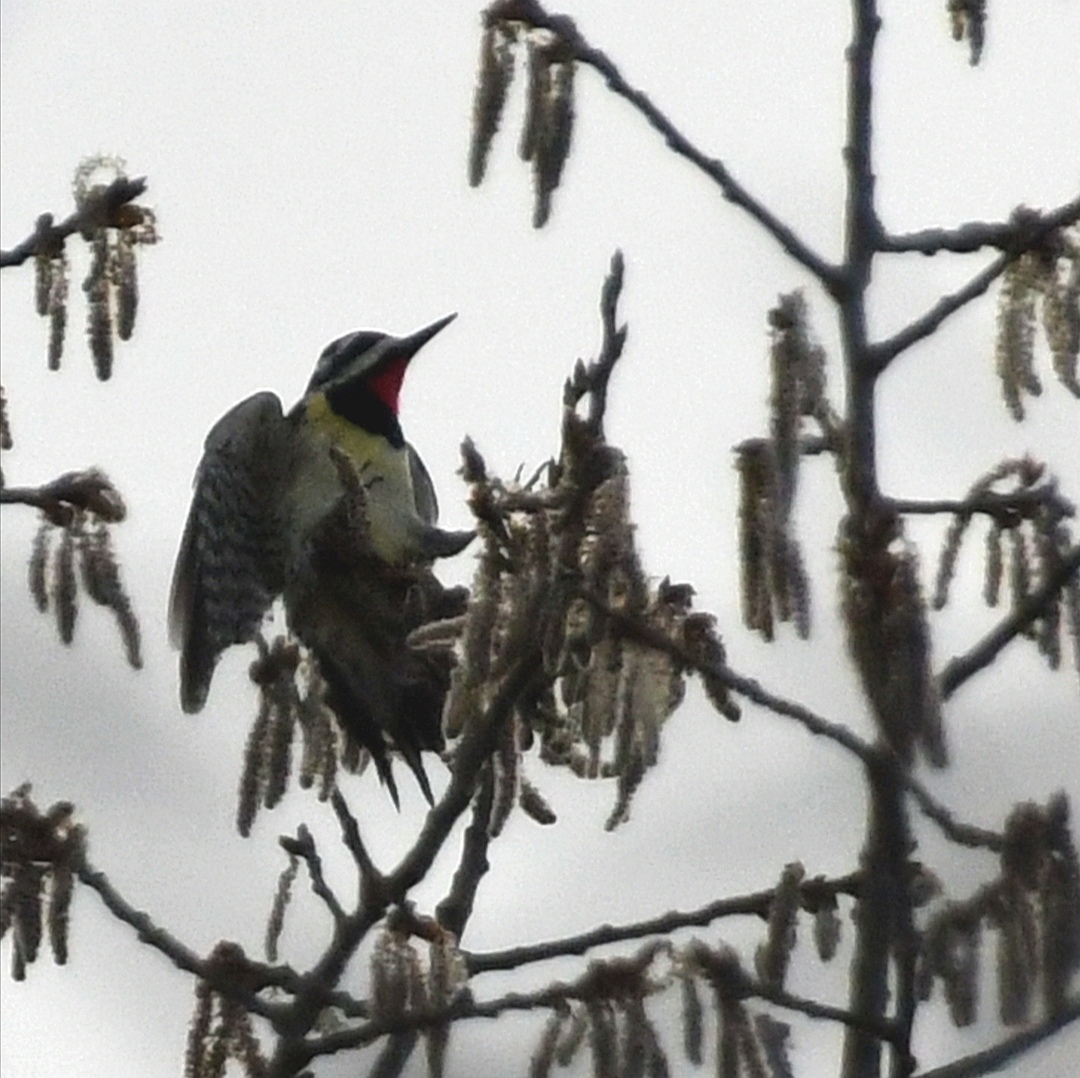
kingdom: Animalia
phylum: Chordata
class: Aves
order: Piciformes
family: Picidae
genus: Sphyrapicus
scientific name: Sphyrapicus varius
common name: Yellow-bellied sapsucker
